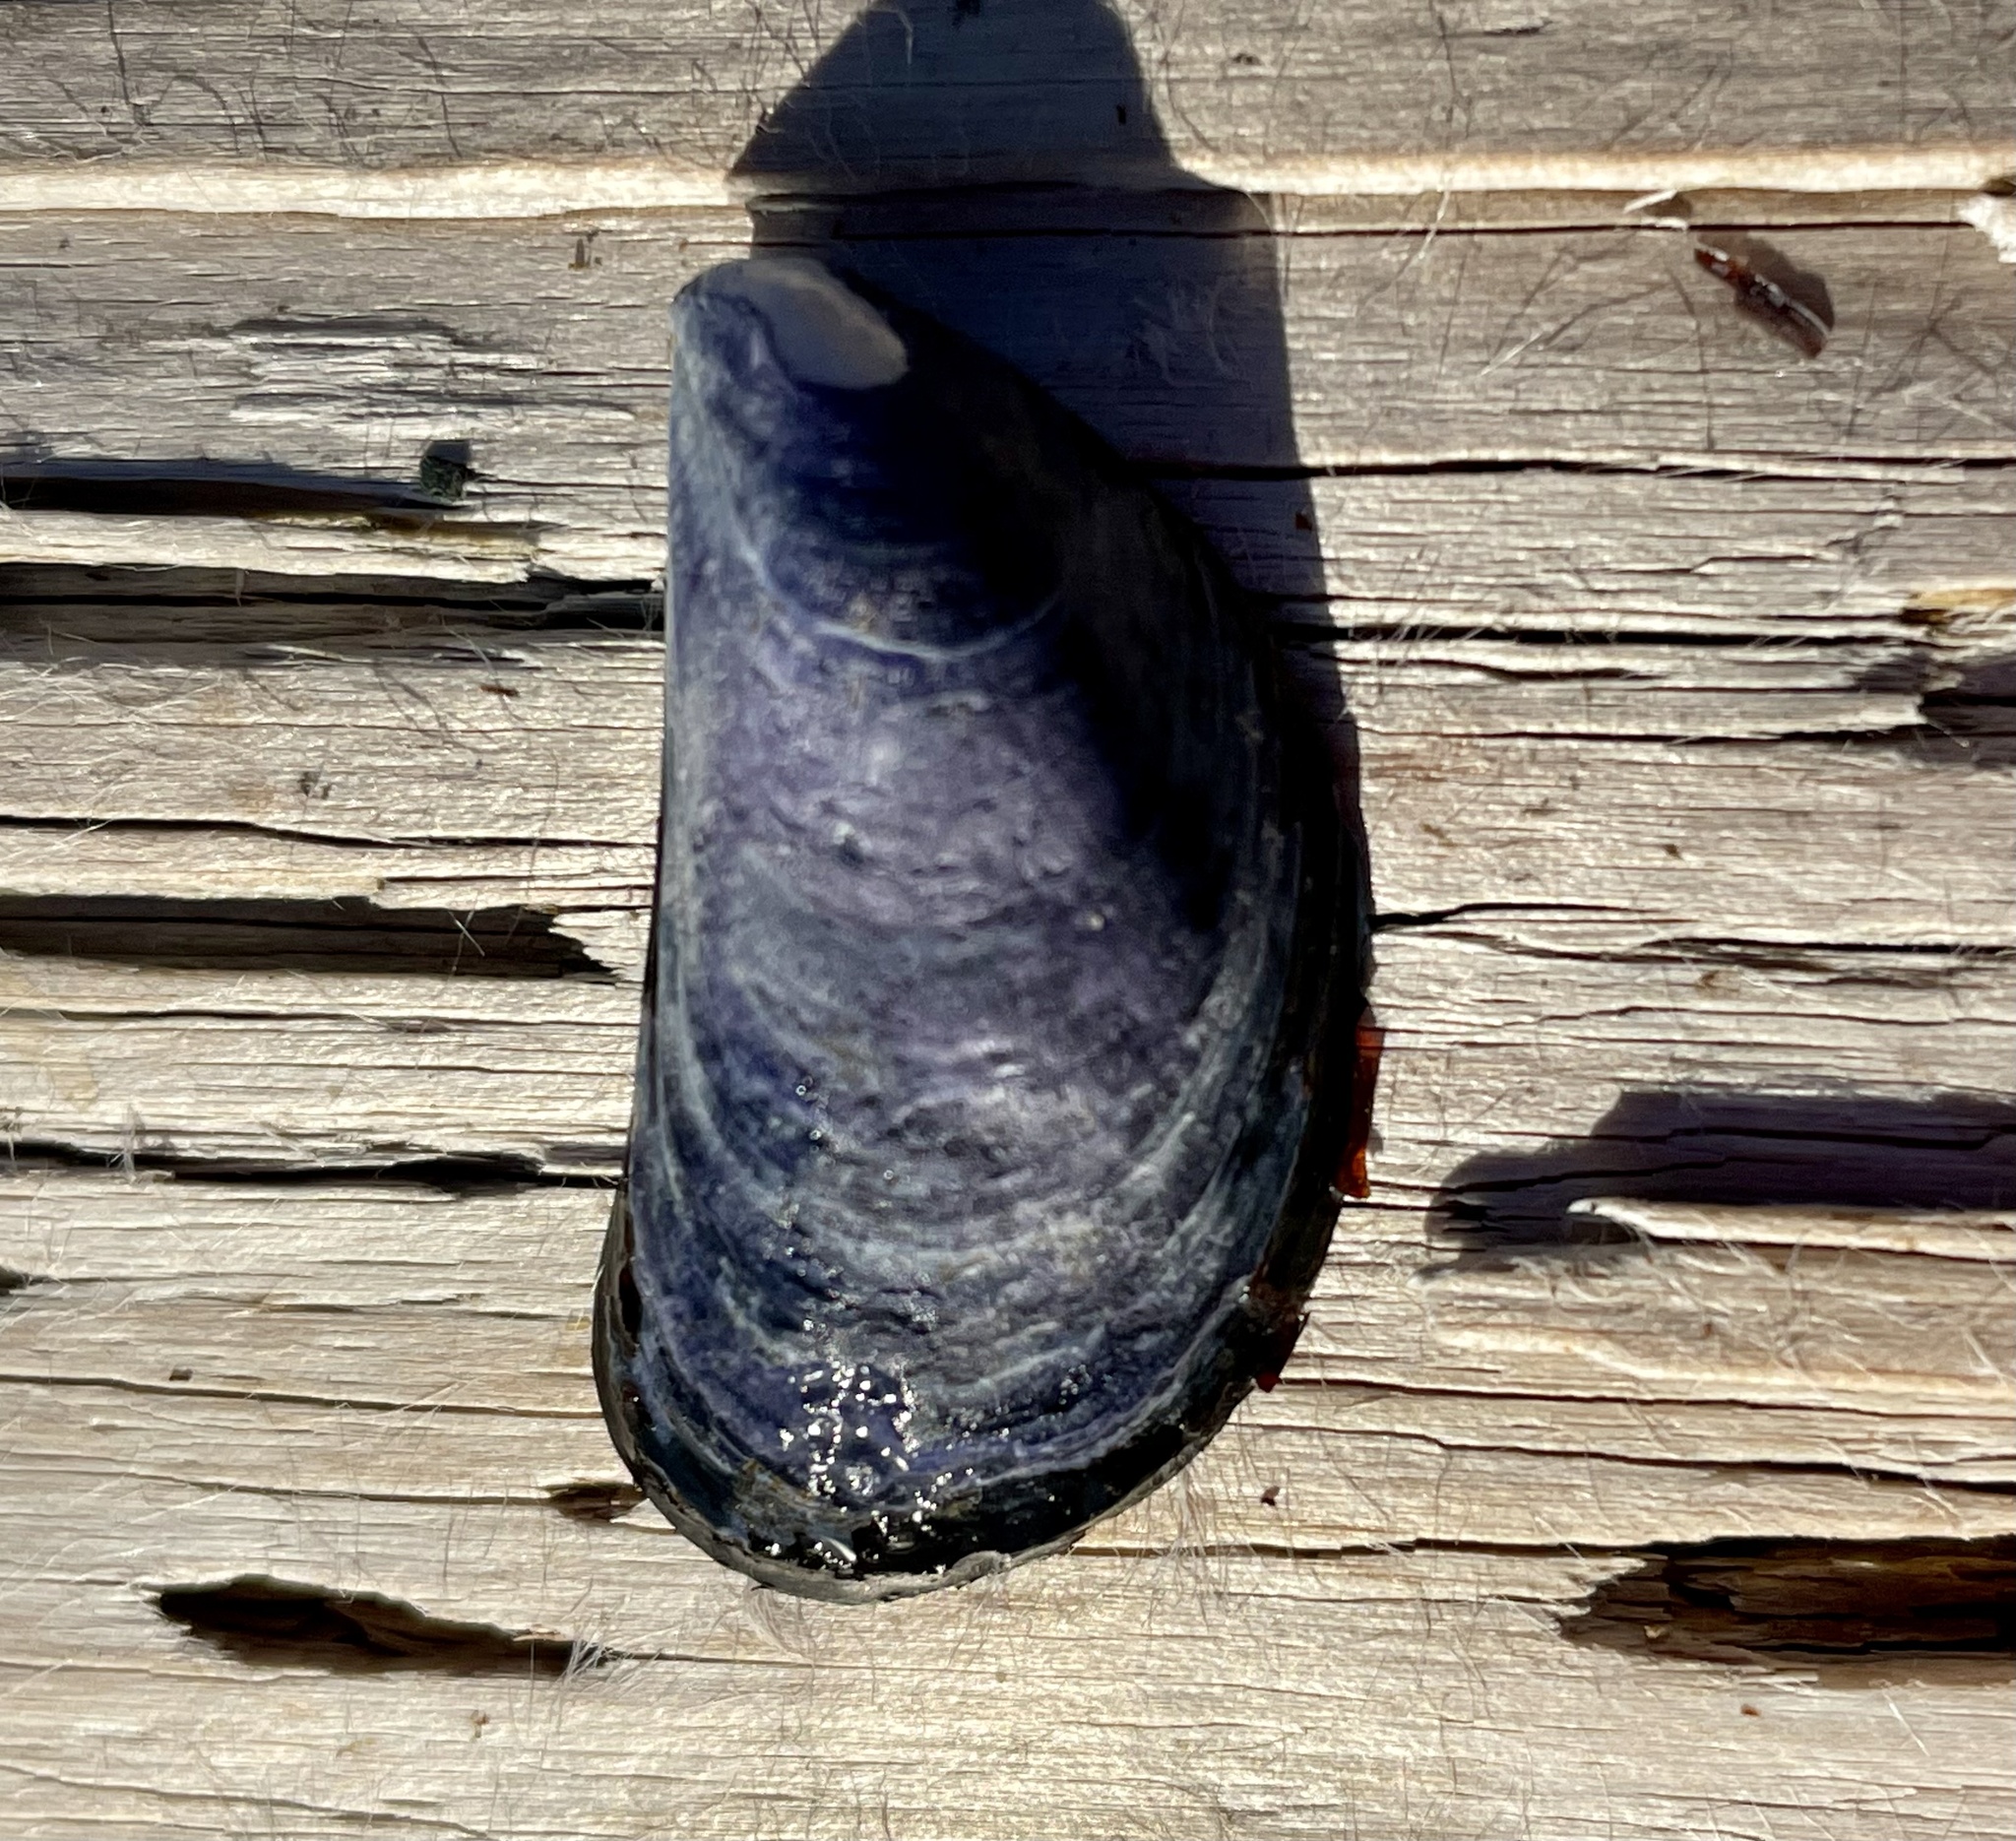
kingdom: Animalia
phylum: Mollusca
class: Bivalvia
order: Mytilida
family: Mytilidae
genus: Mytilus
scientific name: Mytilus trossulus
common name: Northern blue mussel
